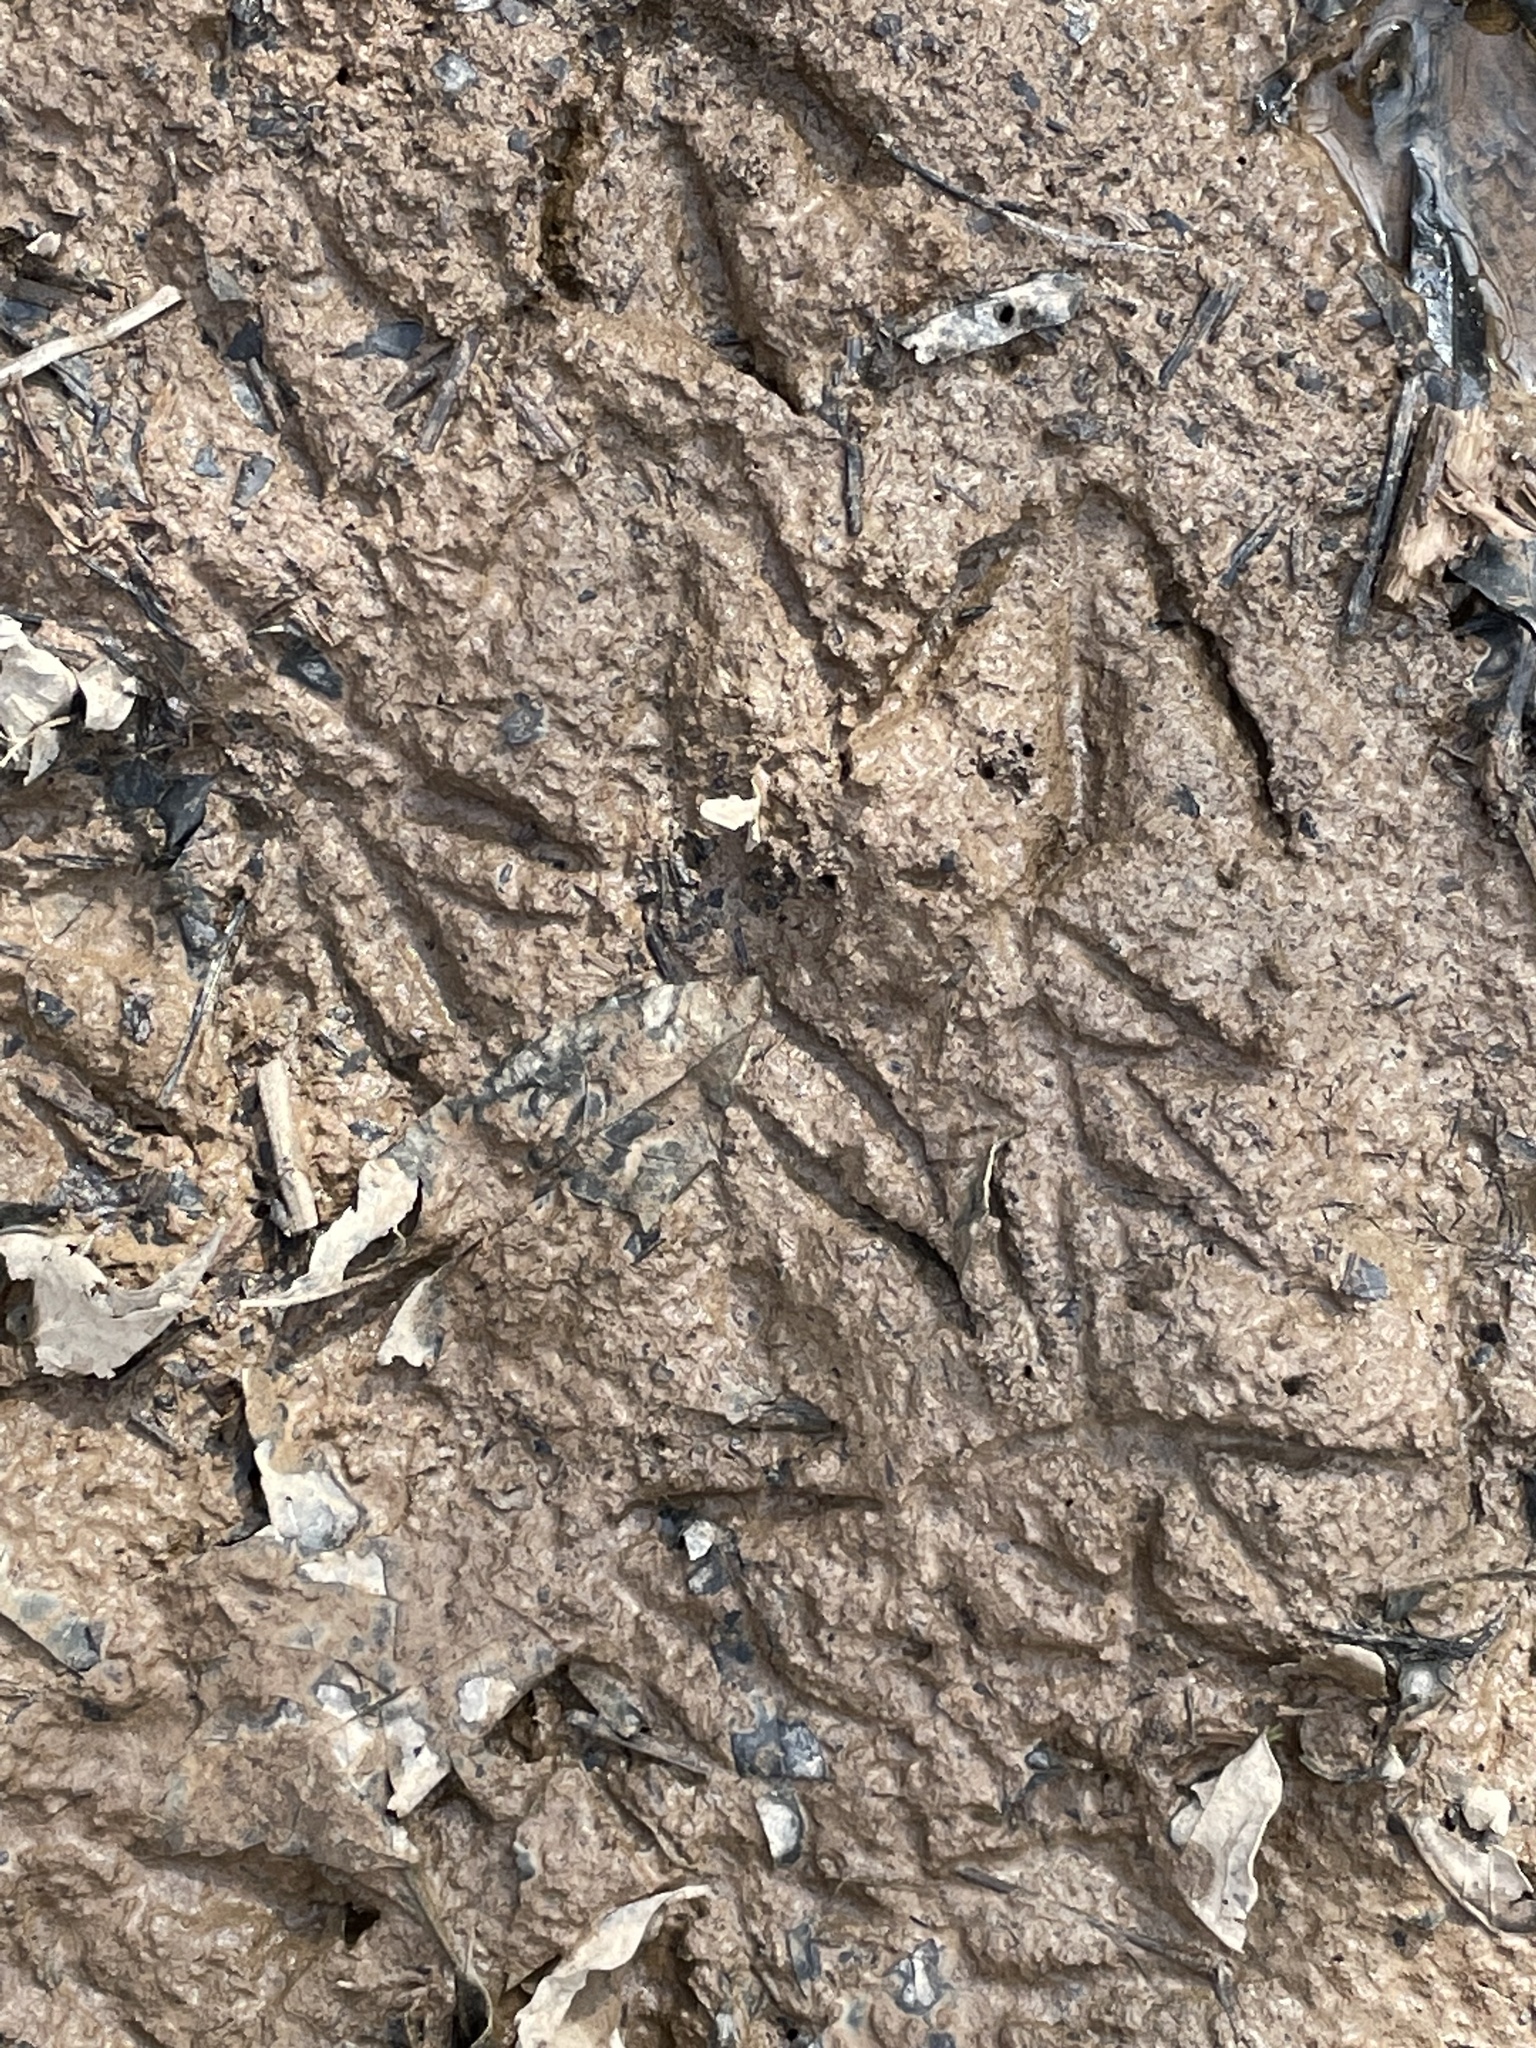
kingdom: Animalia
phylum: Chordata
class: Aves
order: Galliformes
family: Phasianidae
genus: Meleagris
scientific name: Meleagris gallopavo
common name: Wild turkey
